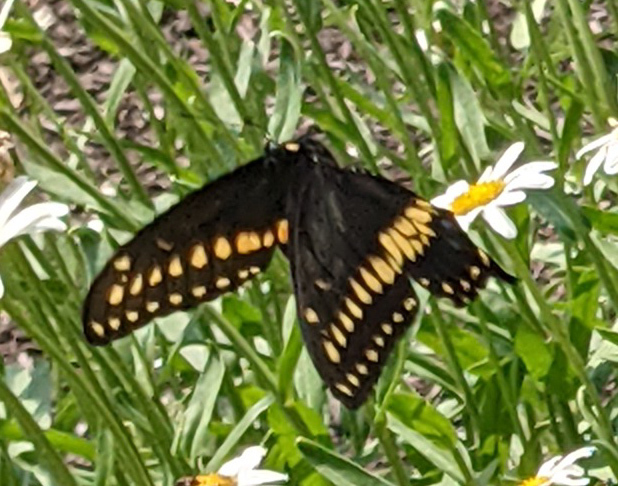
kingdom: Animalia
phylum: Arthropoda
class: Insecta
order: Lepidoptera
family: Papilionidae
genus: Papilio
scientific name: Papilio polyxenes
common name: Black swallowtail
